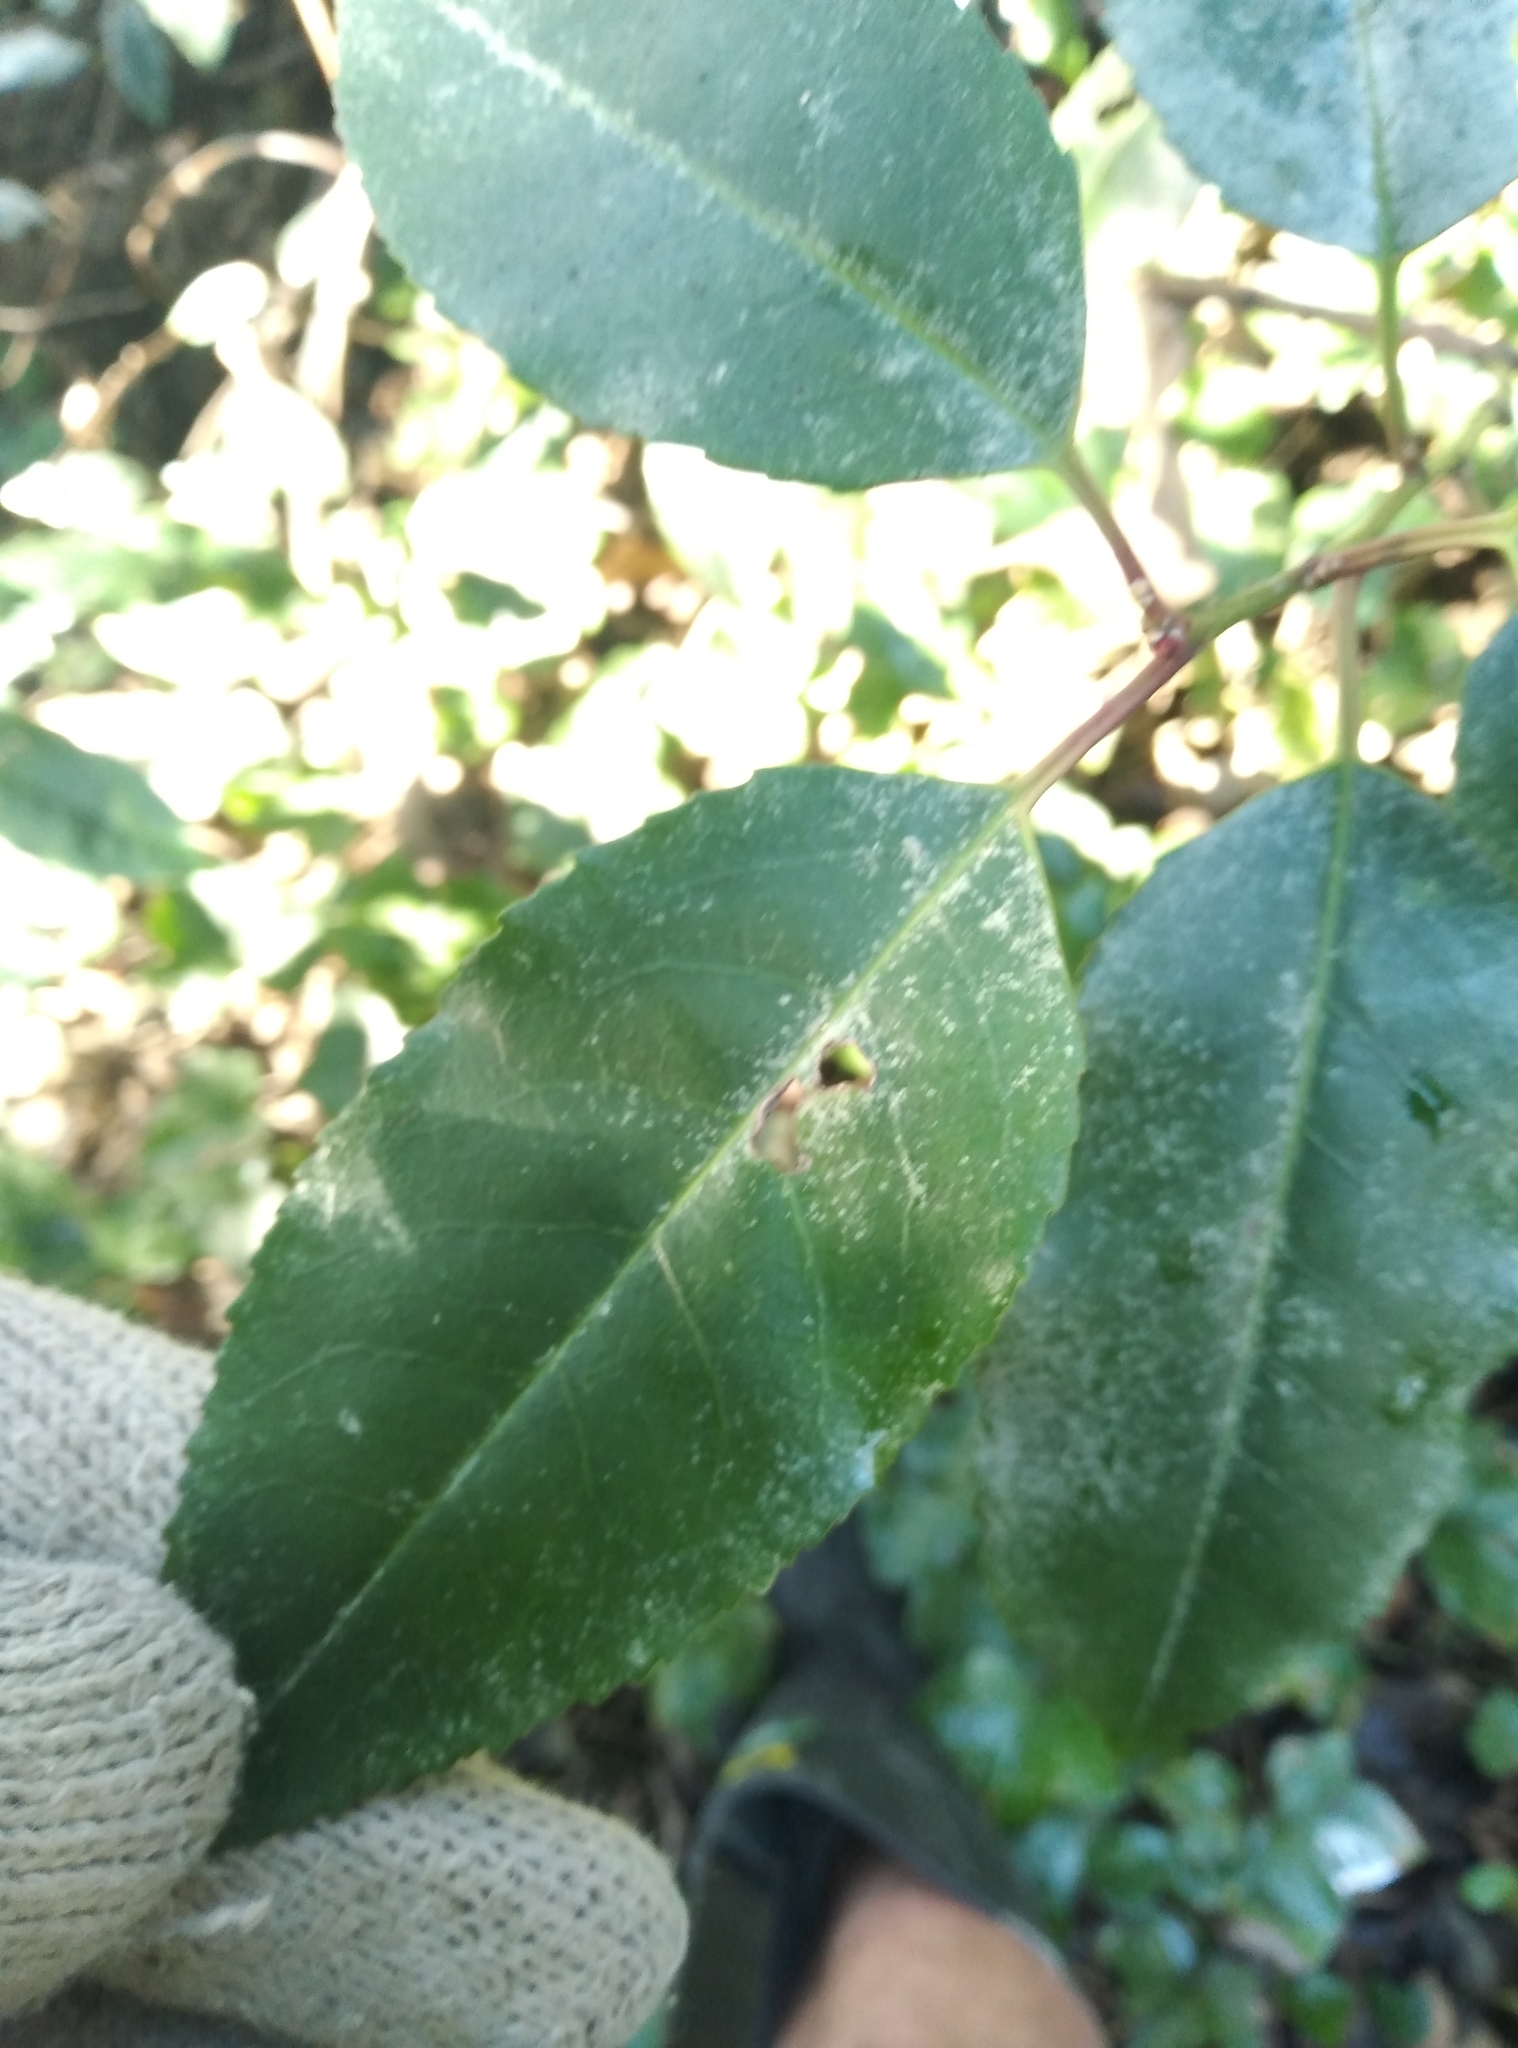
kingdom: Plantae
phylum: Tracheophyta
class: Magnoliopsida
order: Rosales
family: Rosaceae
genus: Prunus
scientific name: Prunus lusitanica
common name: Portugal laurel
